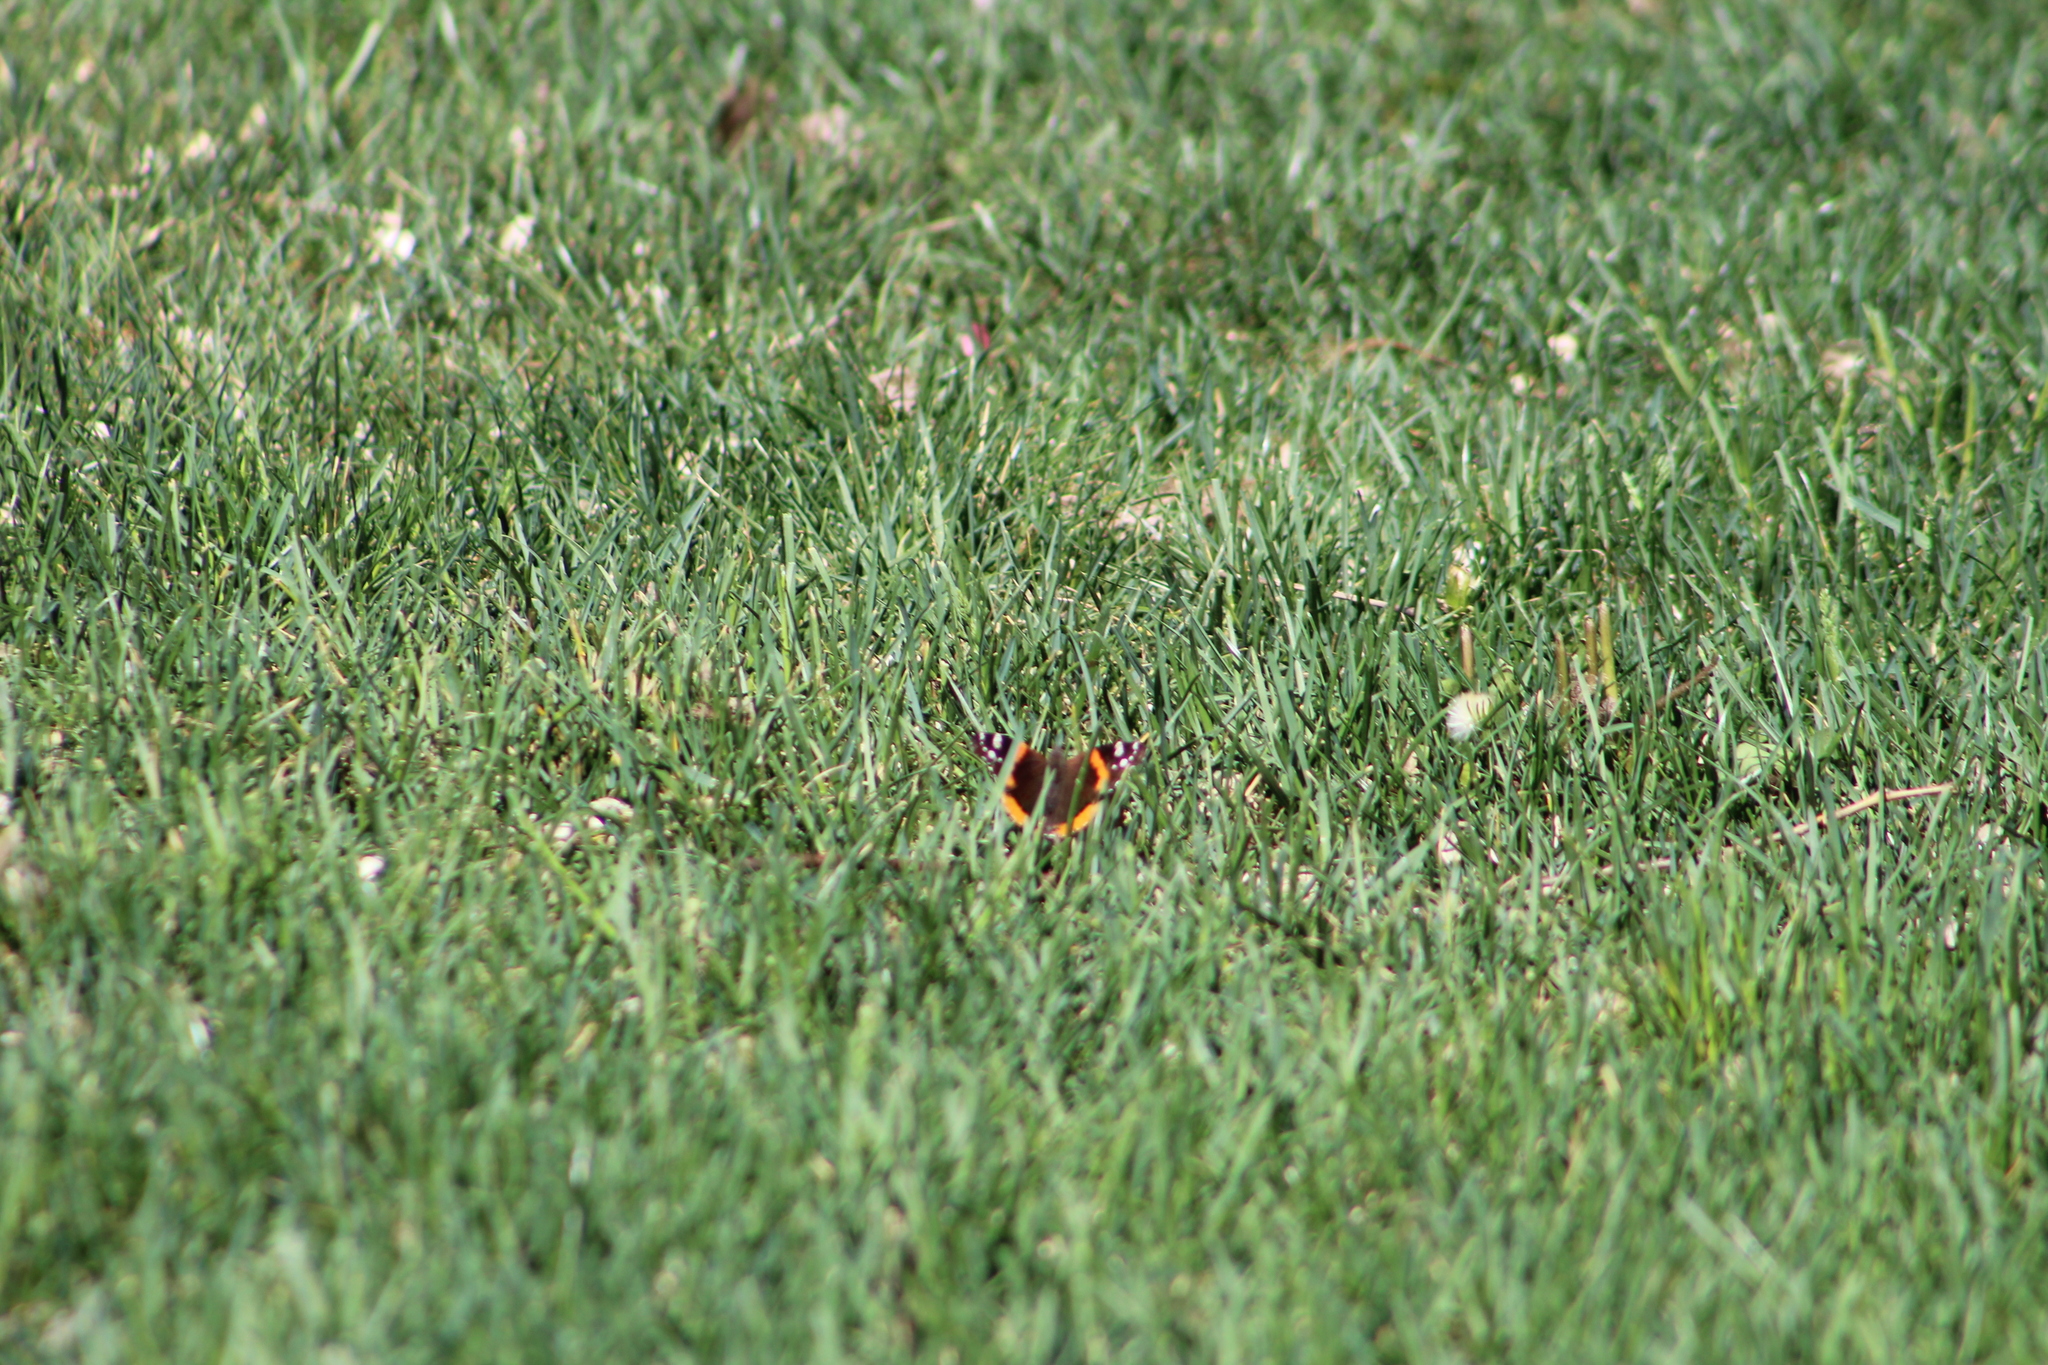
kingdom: Animalia
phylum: Arthropoda
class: Insecta
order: Lepidoptera
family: Nymphalidae
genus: Vanessa
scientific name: Vanessa atalanta
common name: Red admiral
